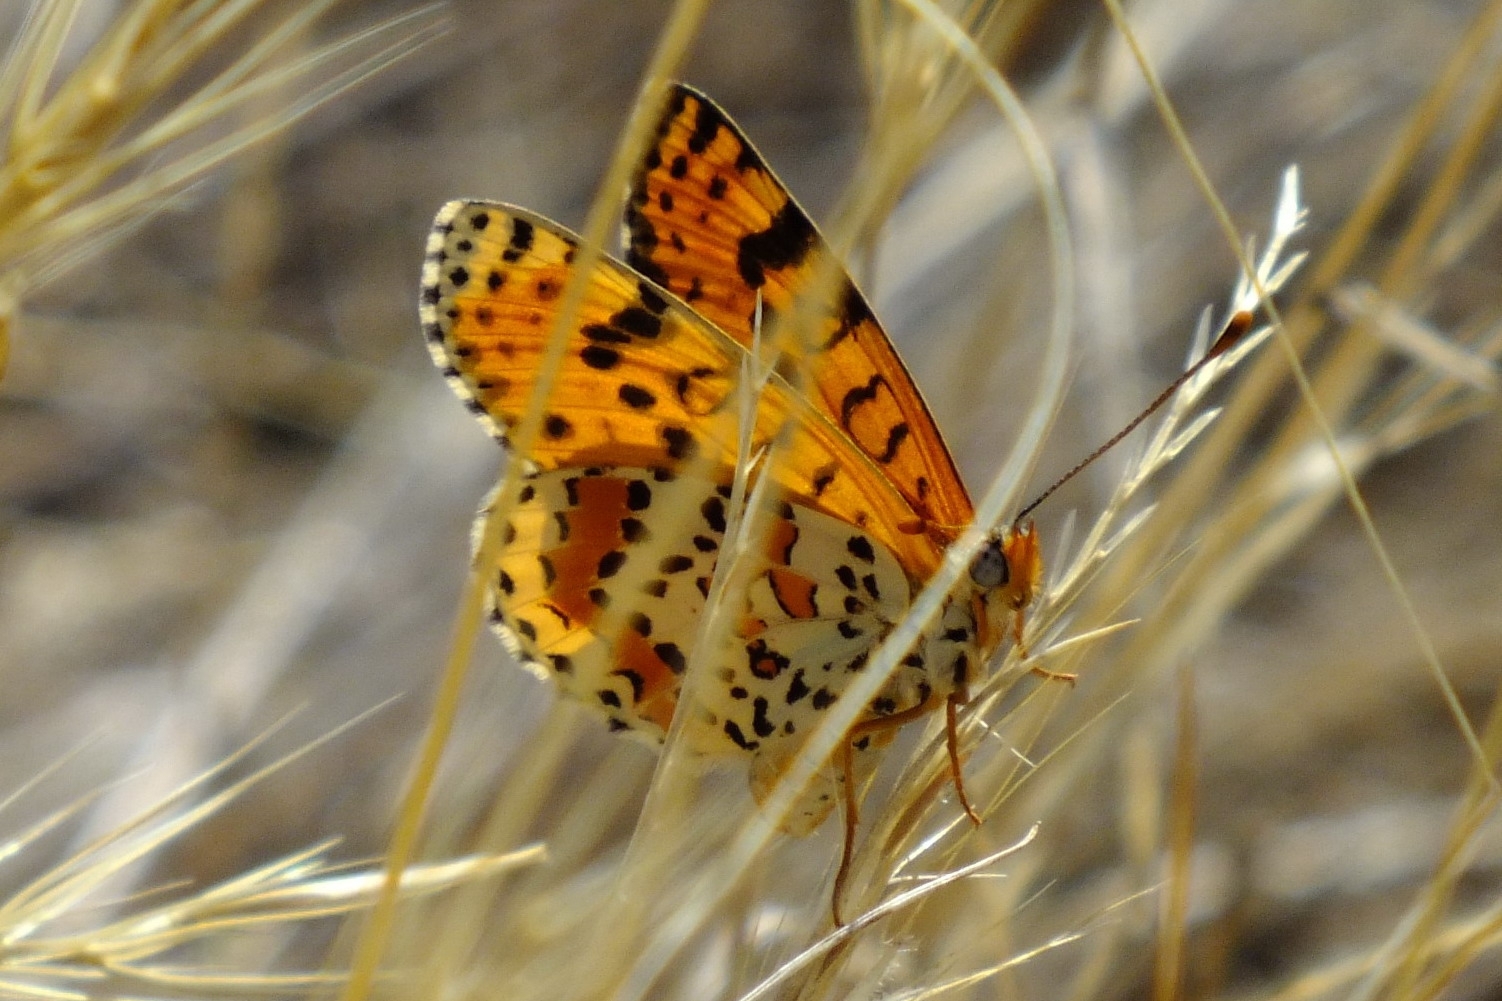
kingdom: Animalia
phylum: Arthropoda
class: Insecta
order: Lepidoptera
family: Nymphalidae
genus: Melitaea
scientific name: Melitaea didyma
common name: Spotted fritillary
